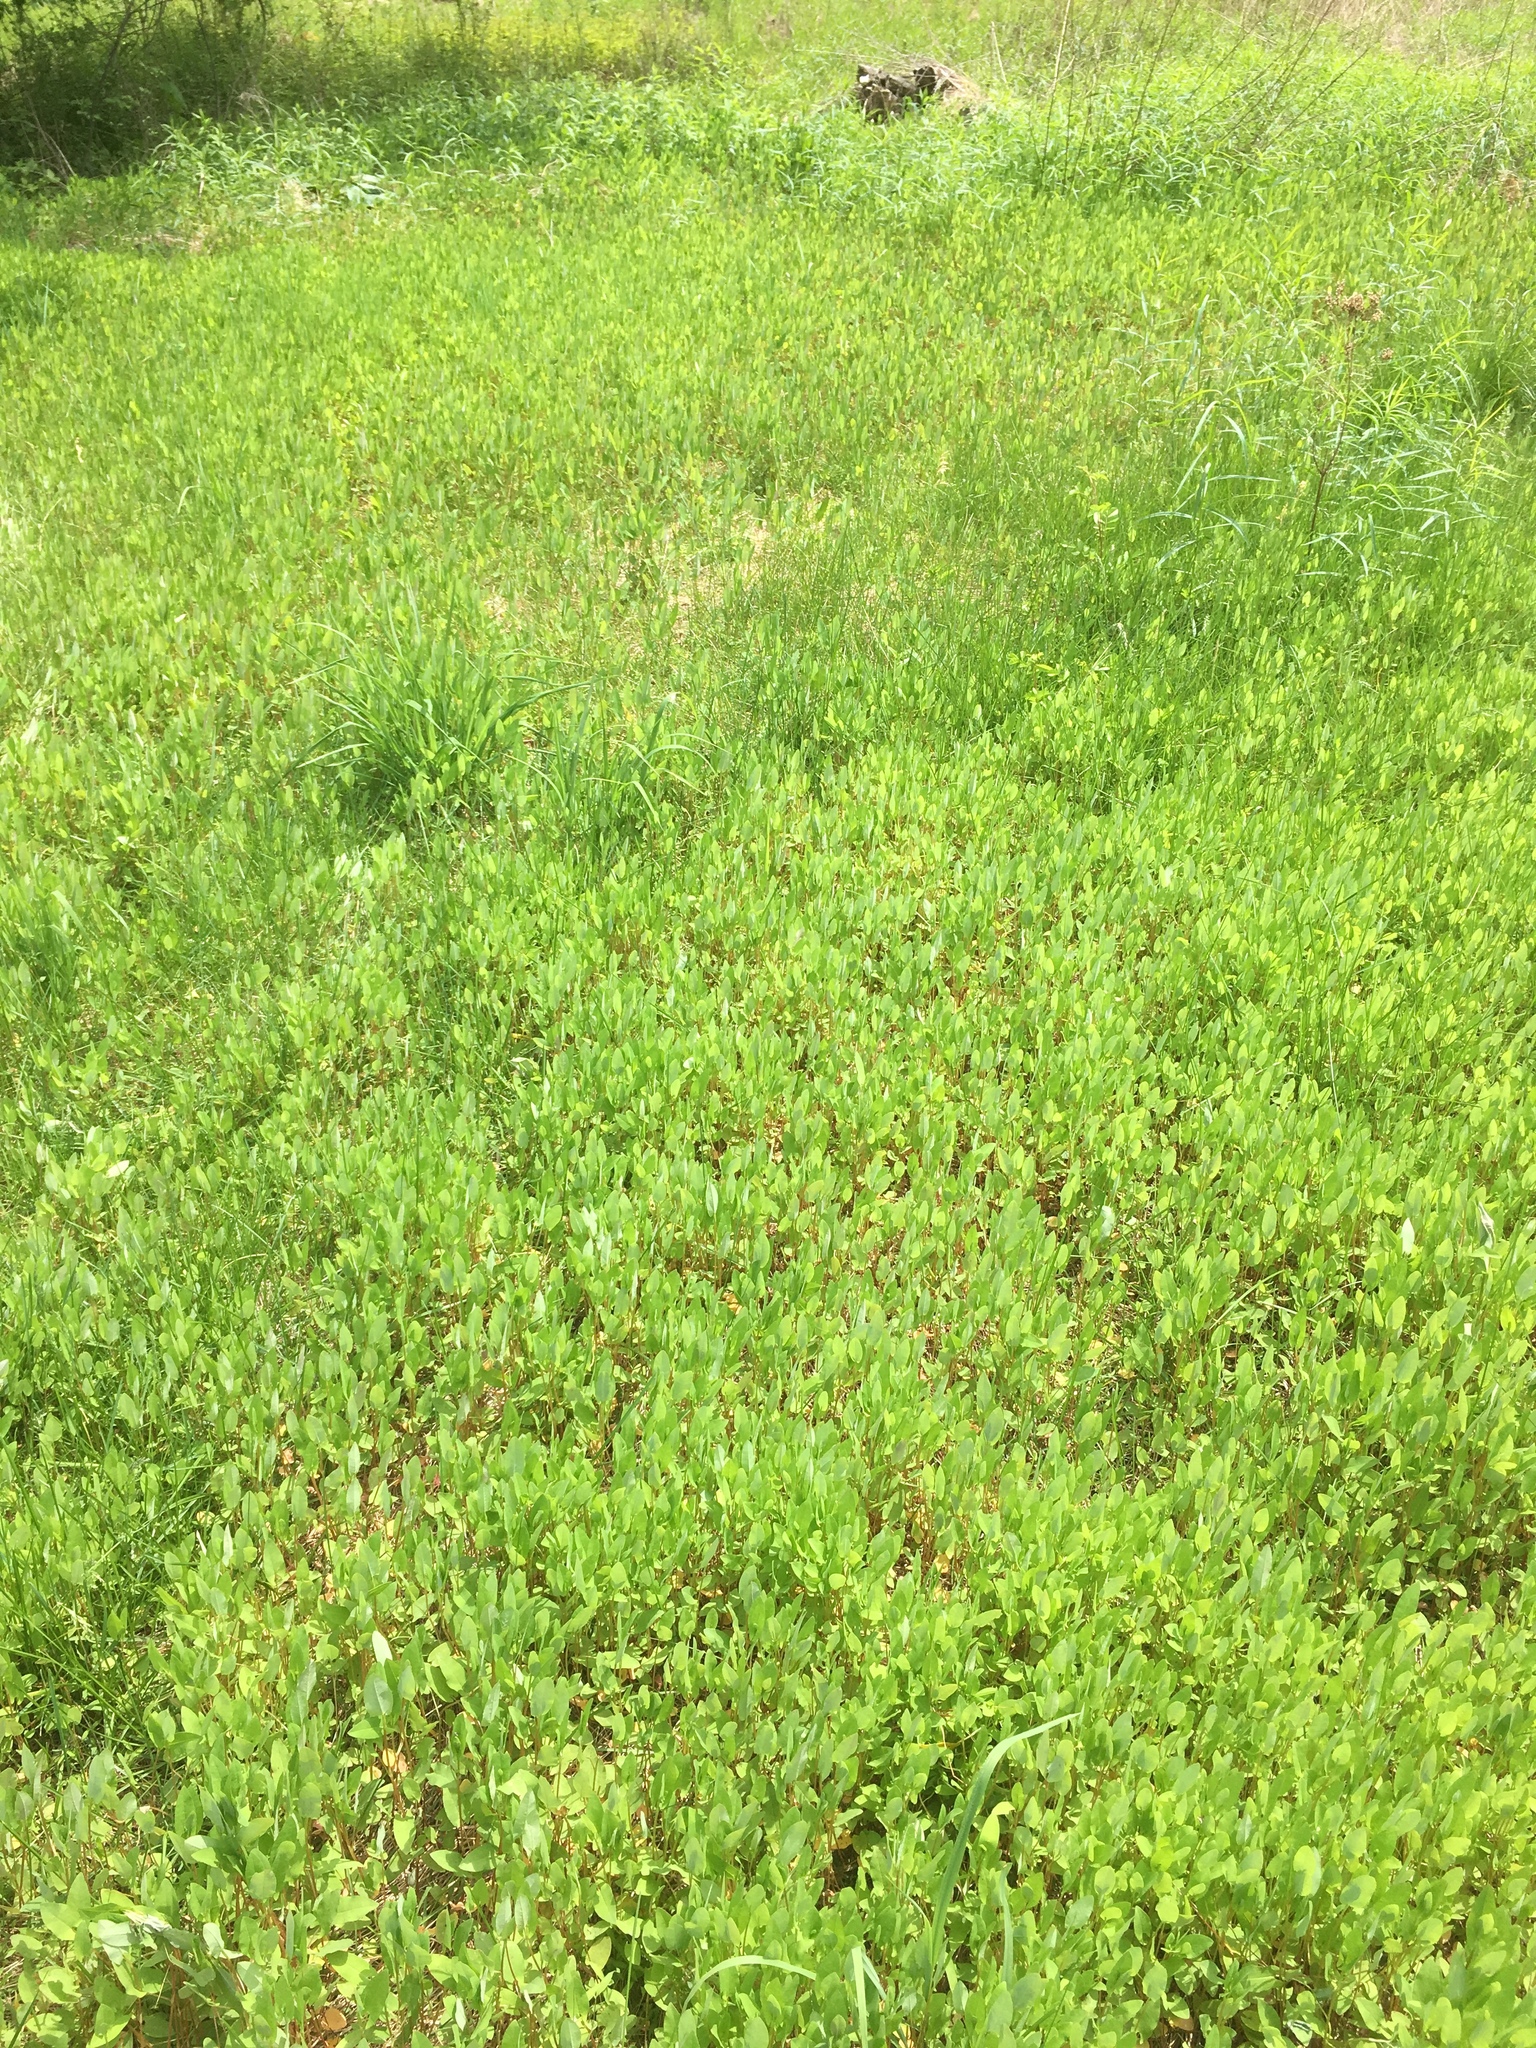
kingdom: Plantae
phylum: Tracheophyta
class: Magnoliopsida
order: Caryophyllales
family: Polygonaceae
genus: Persicaria
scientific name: Persicaria sagittata
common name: American tearthumb
